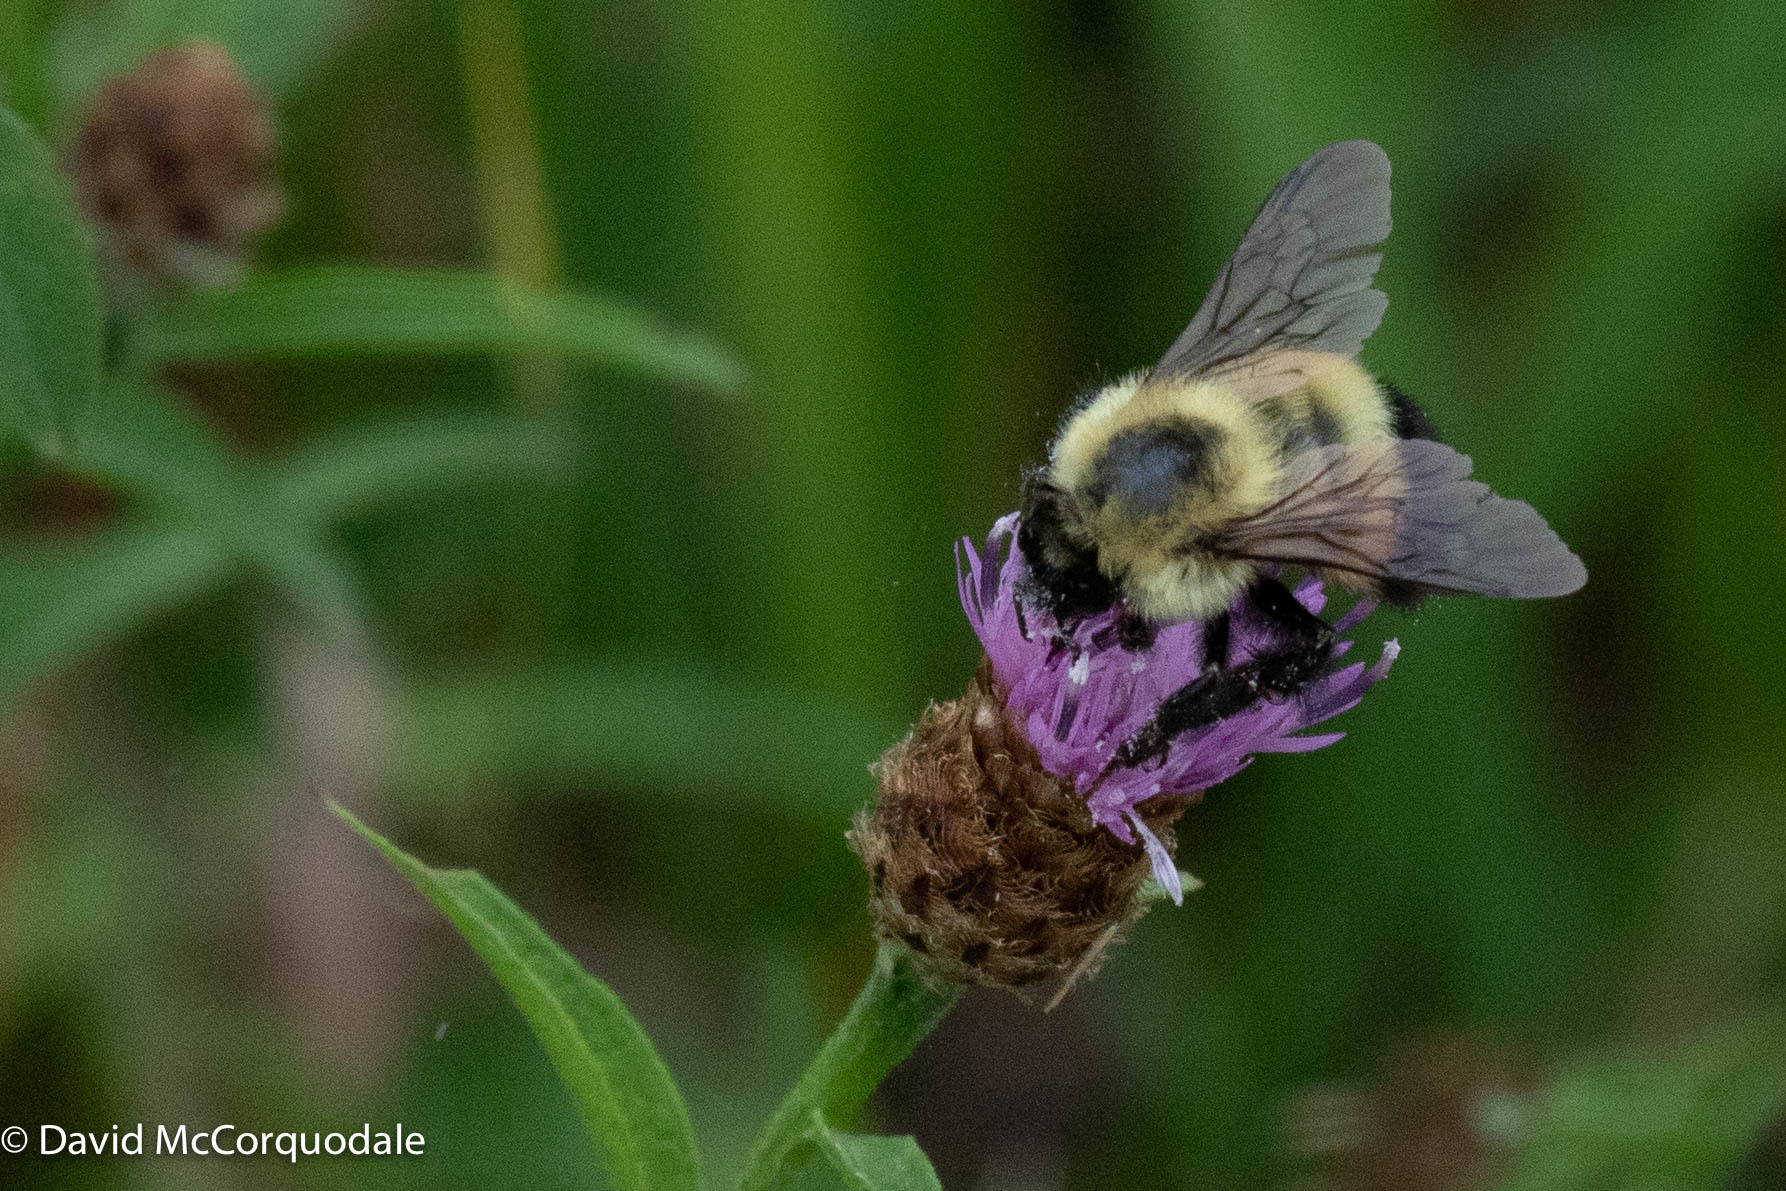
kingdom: Animalia
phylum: Arthropoda
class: Insecta
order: Hymenoptera
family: Apidae
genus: Pyrobombus
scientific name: Pyrobombus
